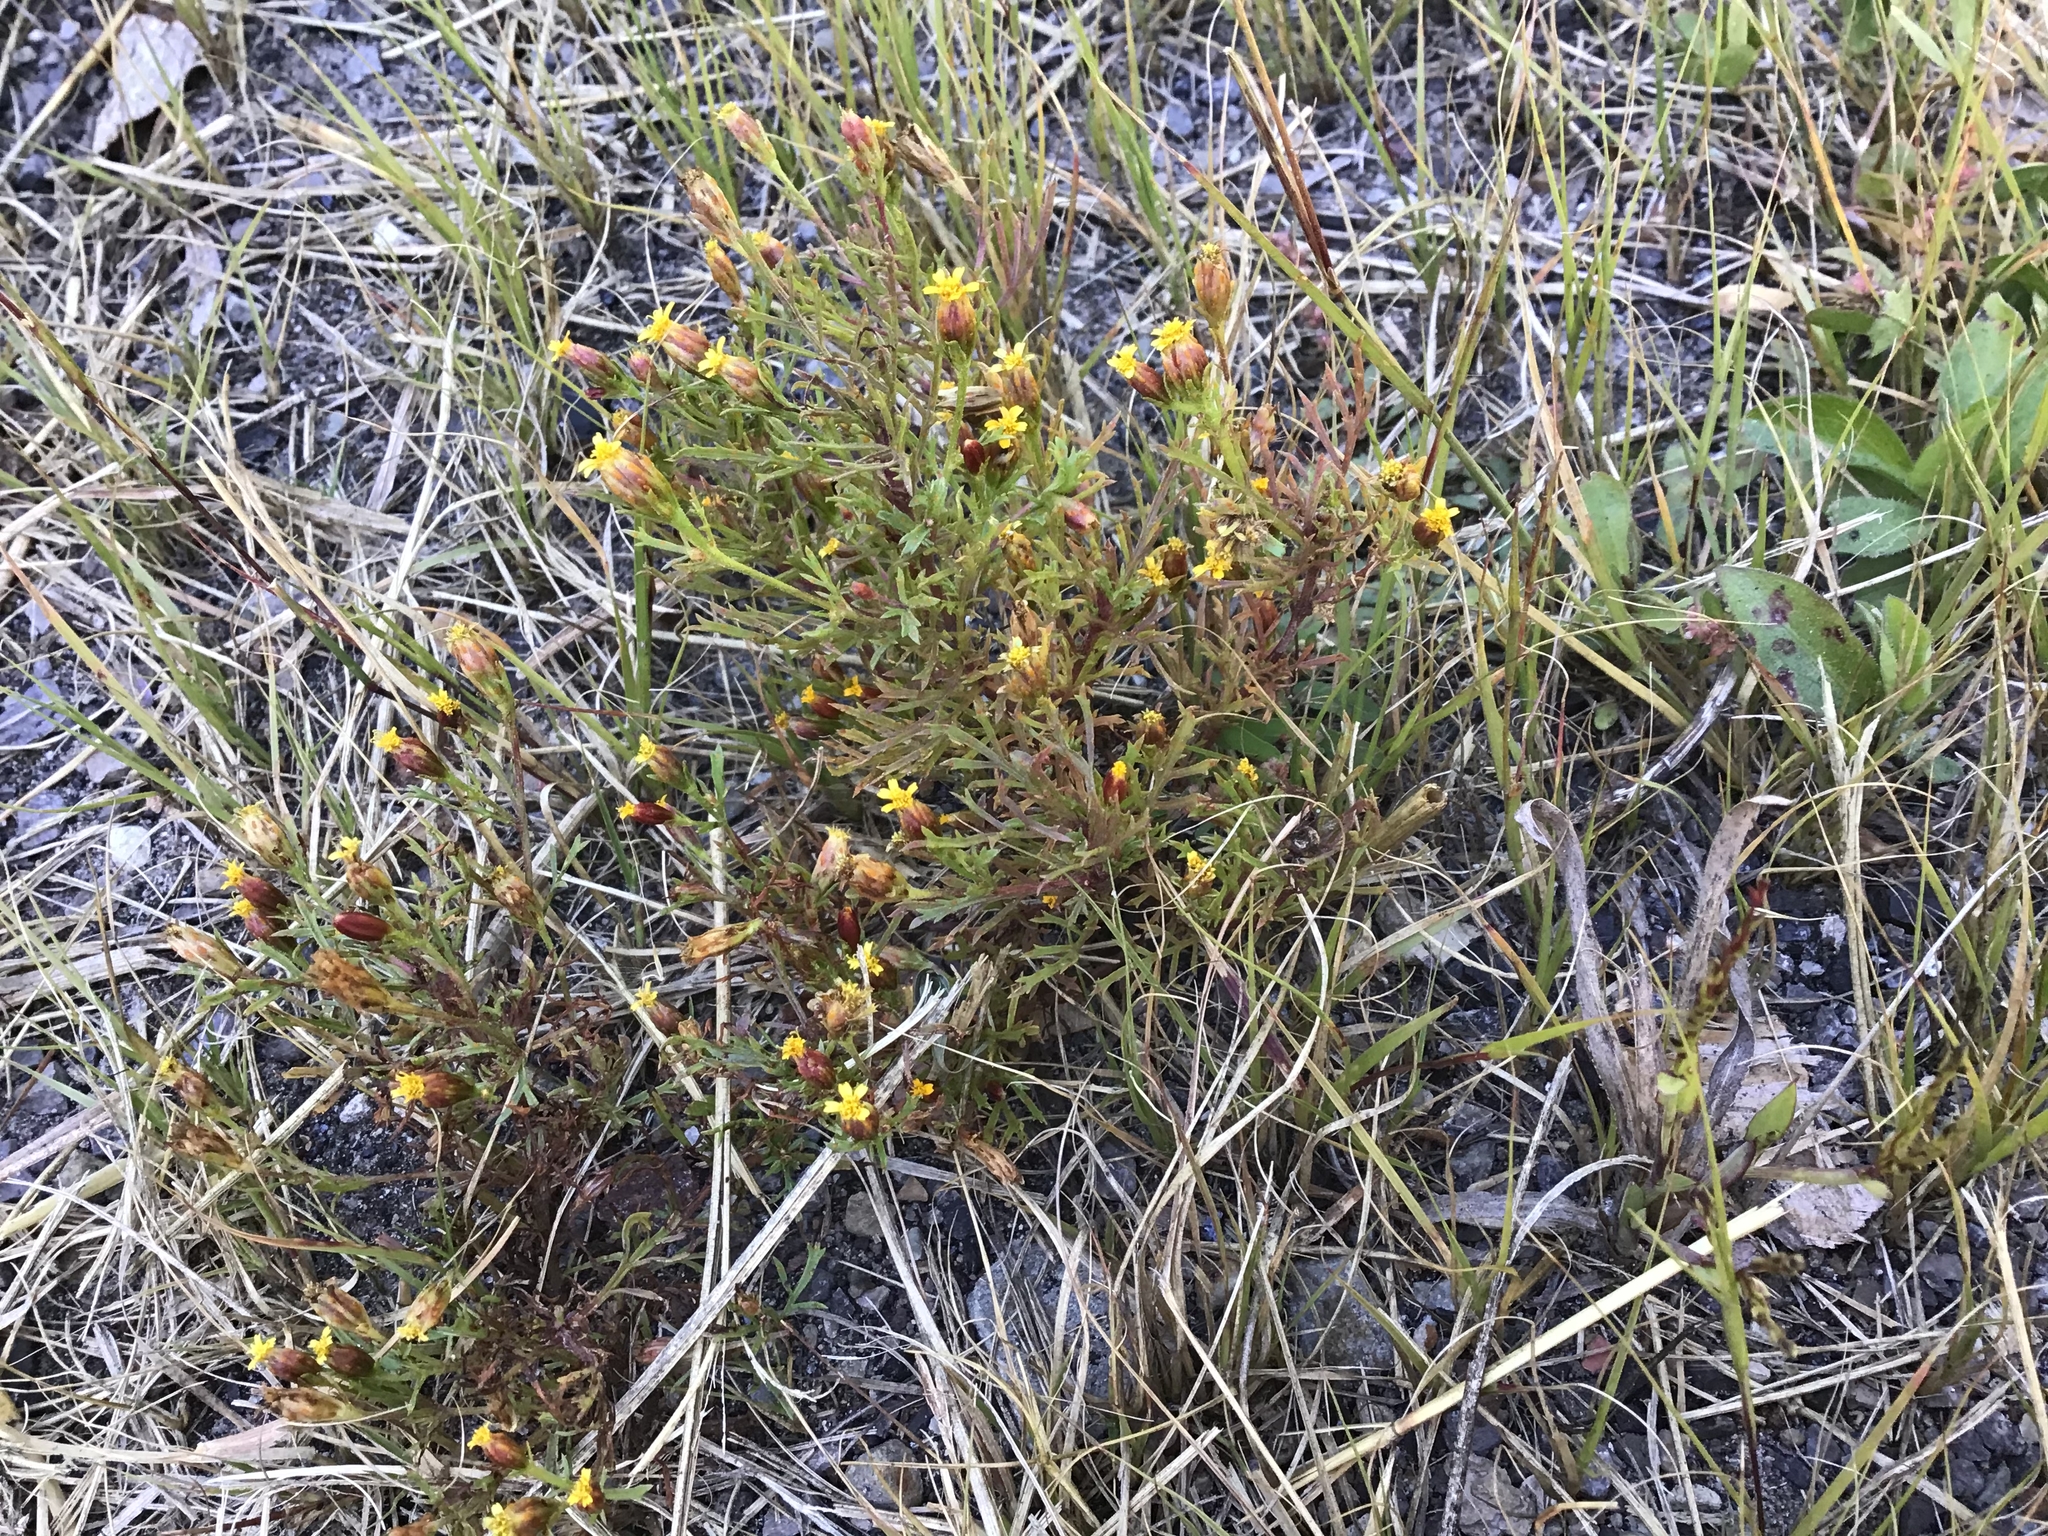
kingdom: Plantae
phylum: Tracheophyta
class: Magnoliopsida
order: Asterales
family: Asteraceae
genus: Dyssodia
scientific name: Dyssodia papposa
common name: Dogweed
